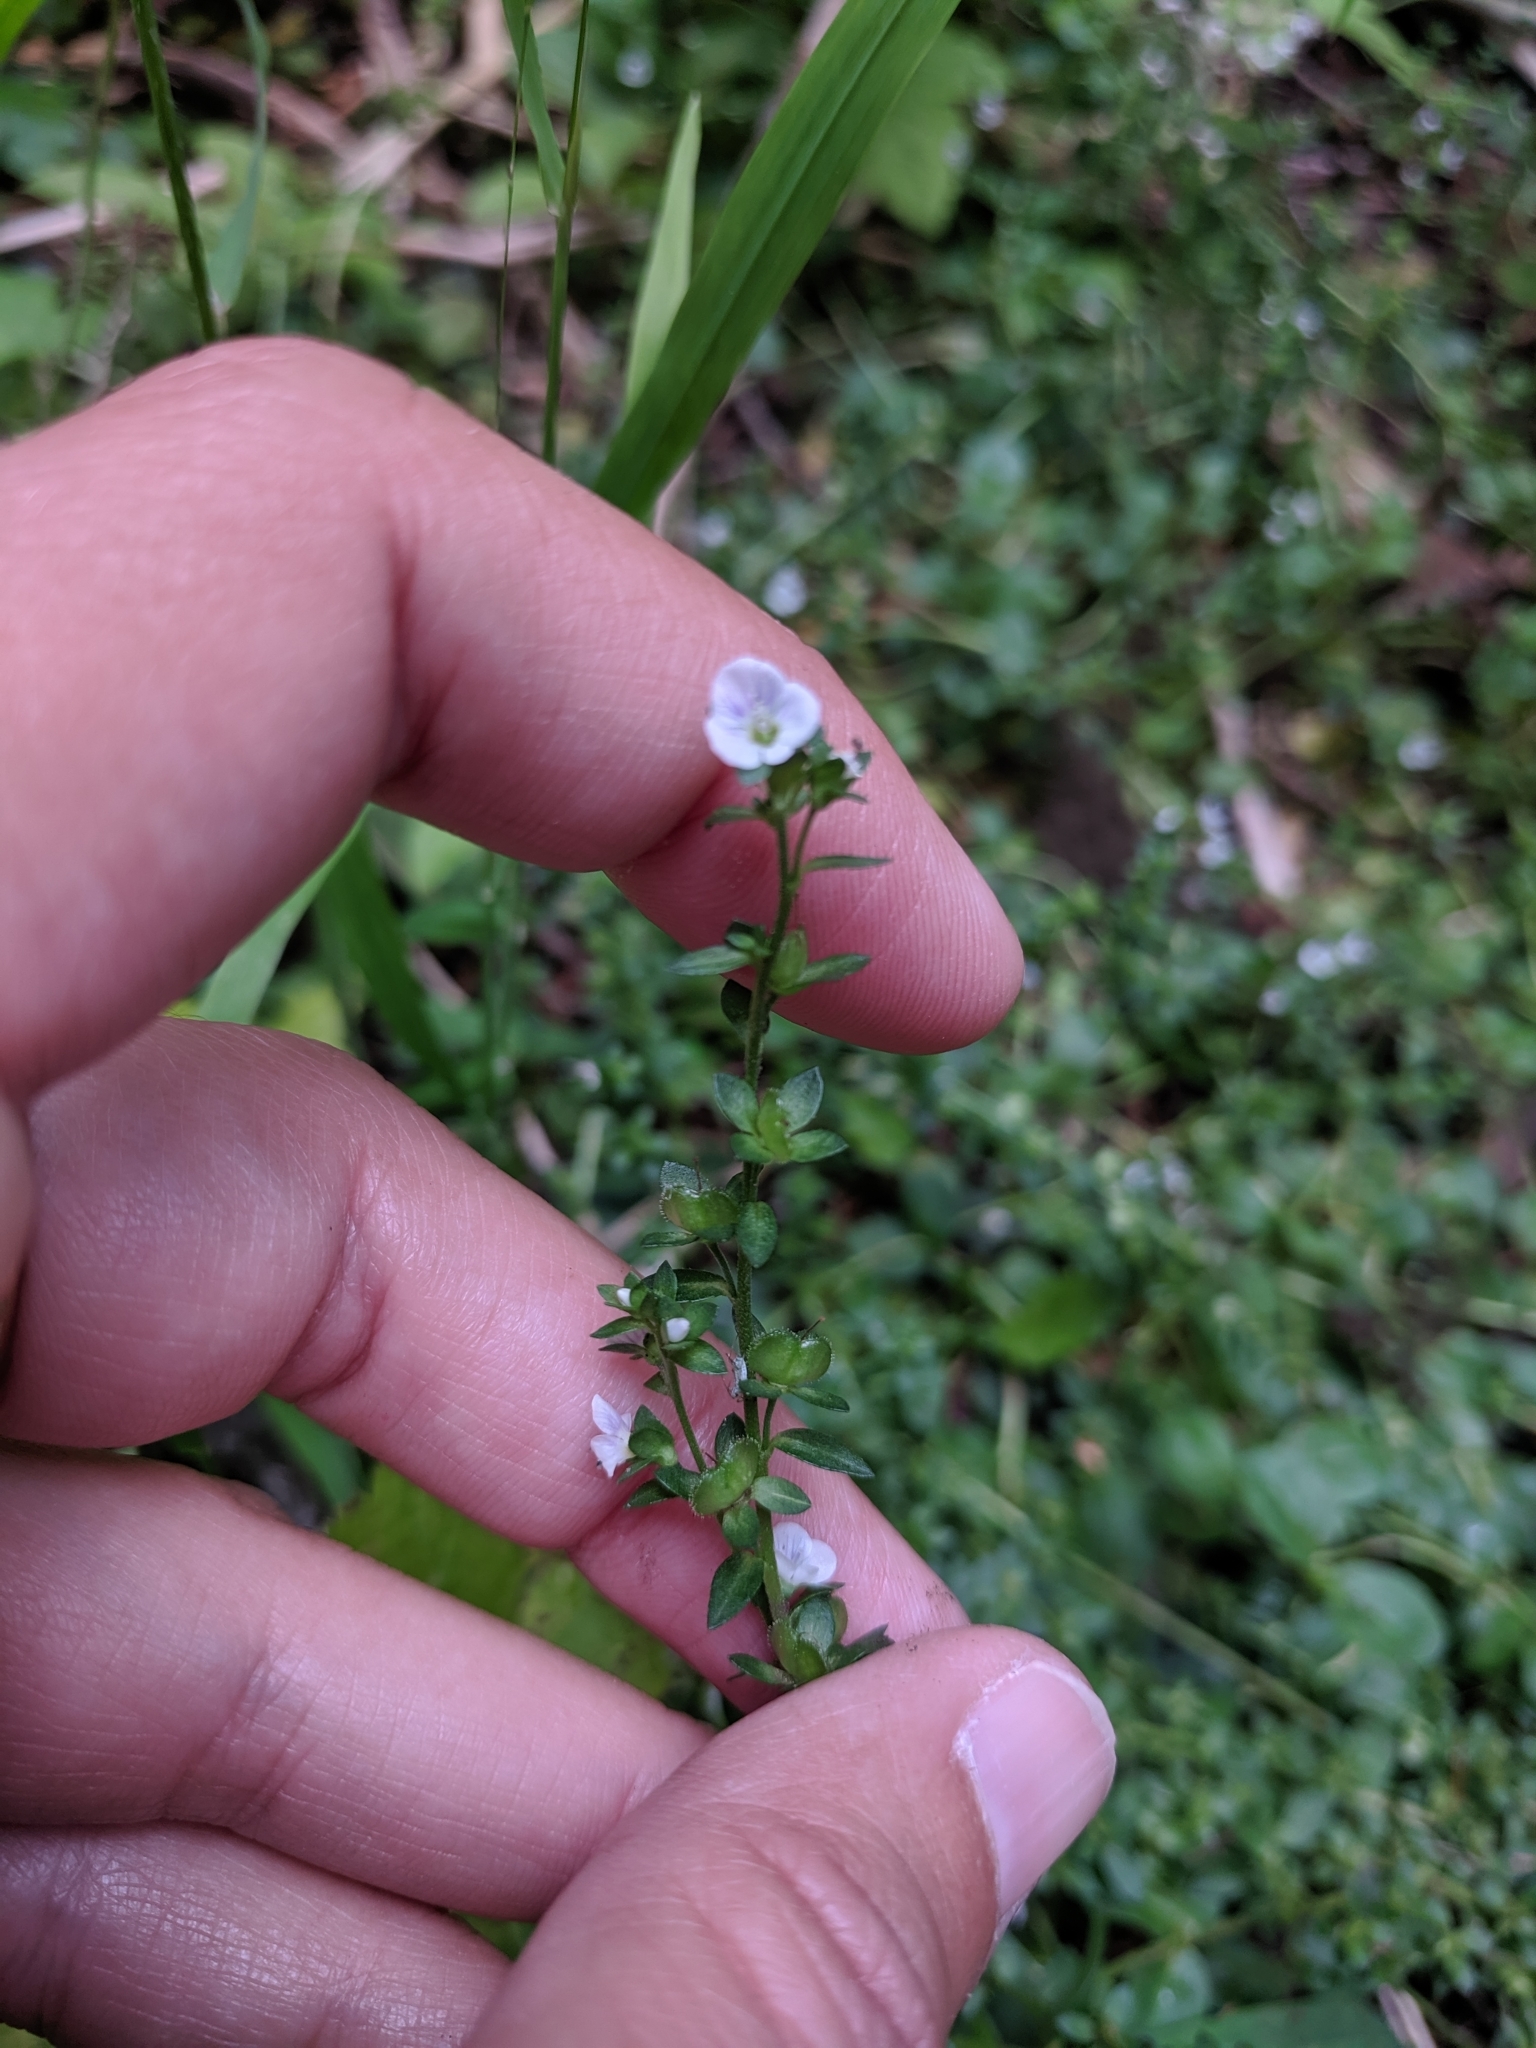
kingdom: Plantae
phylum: Tracheophyta
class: Magnoliopsida
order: Lamiales
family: Plantaginaceae
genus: Veronica
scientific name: Veronica serpyllifolia
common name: Thyme-leaved speedwell
